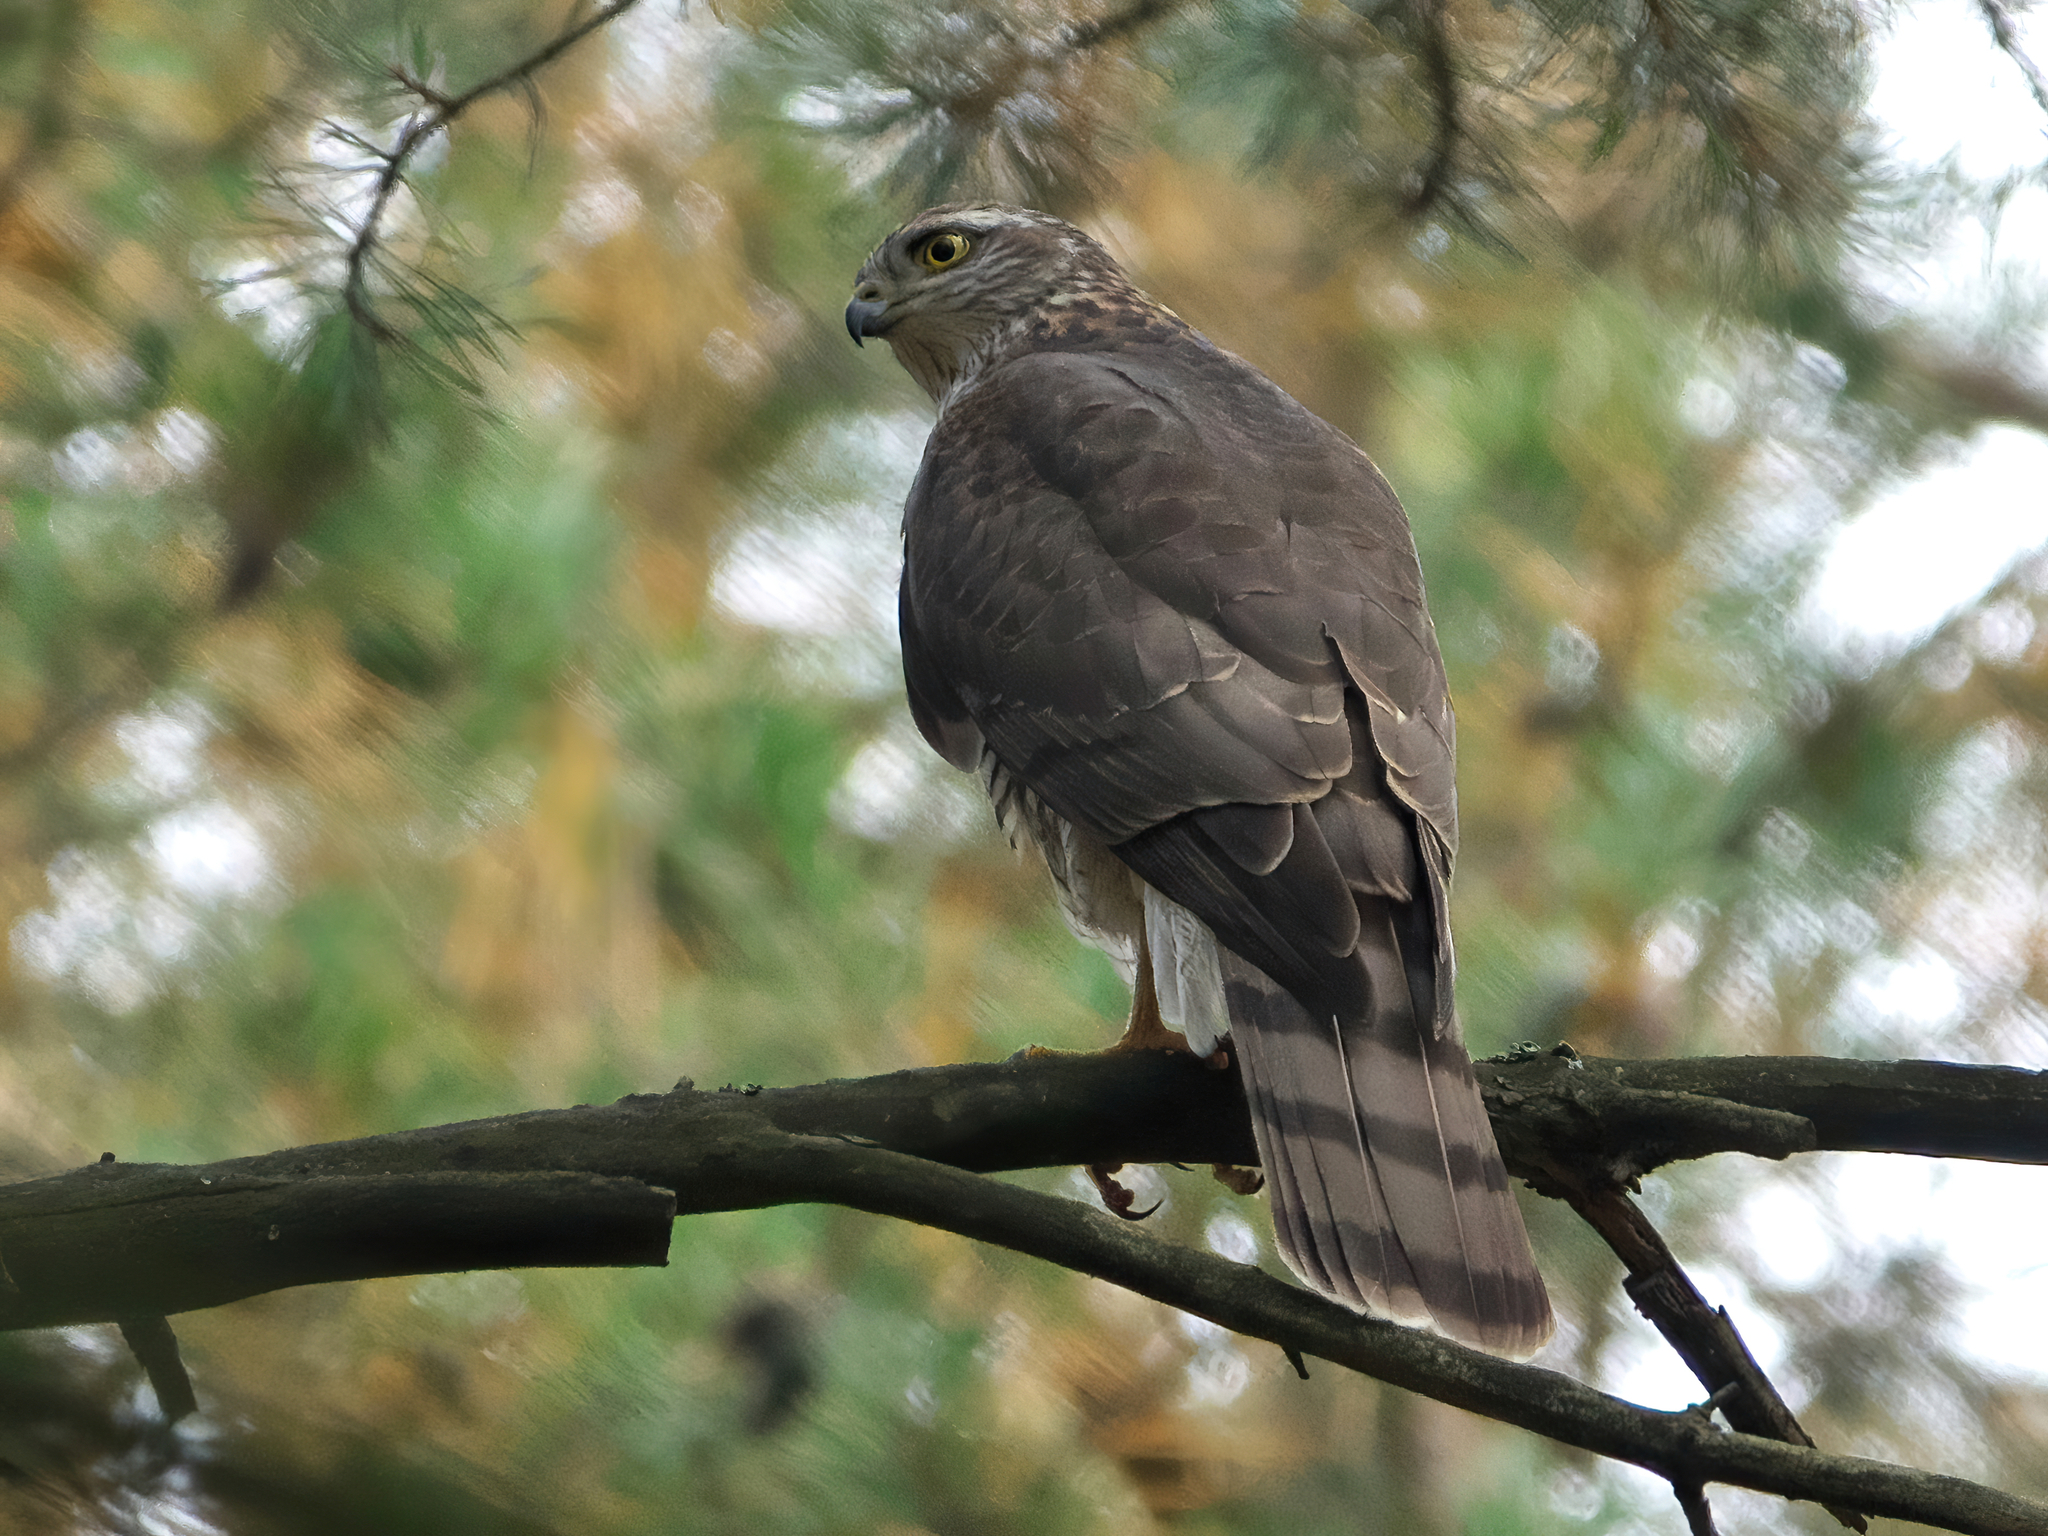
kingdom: Animalia
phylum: Chordata
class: Aves
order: Accipitriformes
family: Accipitridae
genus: Accipiter
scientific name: Accipiter nisus
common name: Eurasian sparrowhawk
